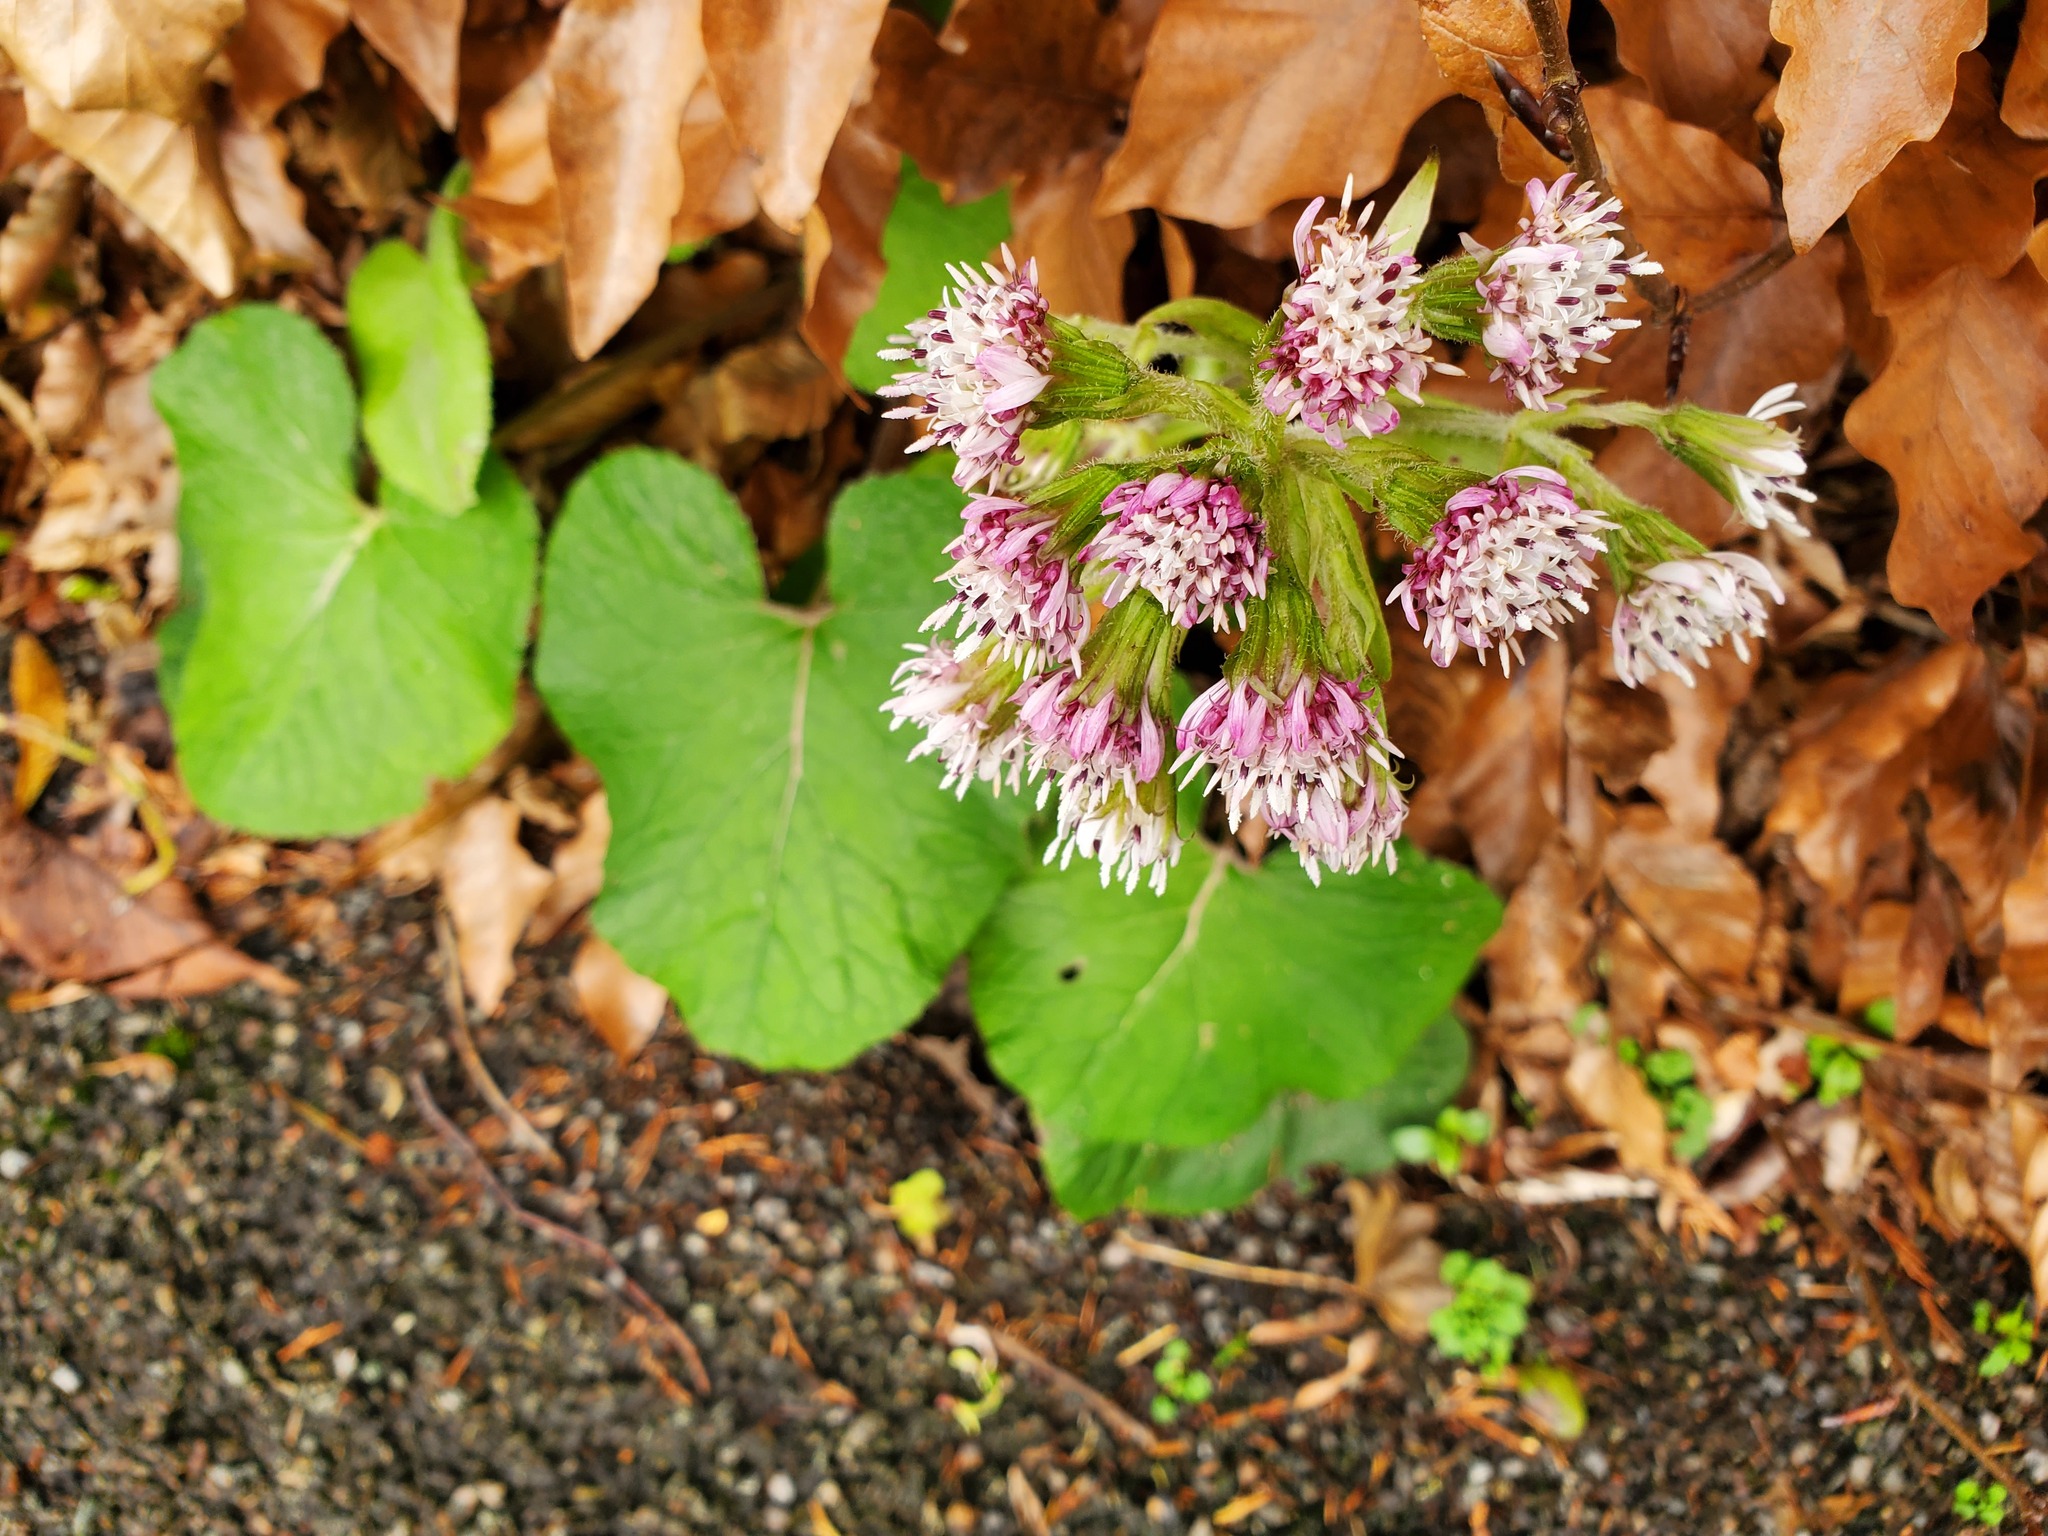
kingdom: Plantae
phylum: Tracheophyta
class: Magnoliopsida
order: Asterales
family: Asteraceae
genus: Petasites
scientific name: Petasites pyrenaicus
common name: Winter heliotrope
